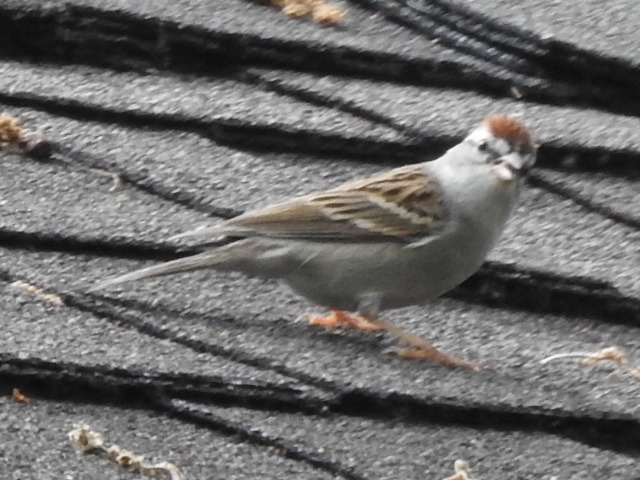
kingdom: Animalia
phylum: Chordata
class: Aves
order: Passeriformes
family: Passerellidae
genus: Spizella
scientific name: Spizella passerina
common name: Chipping sparrow
